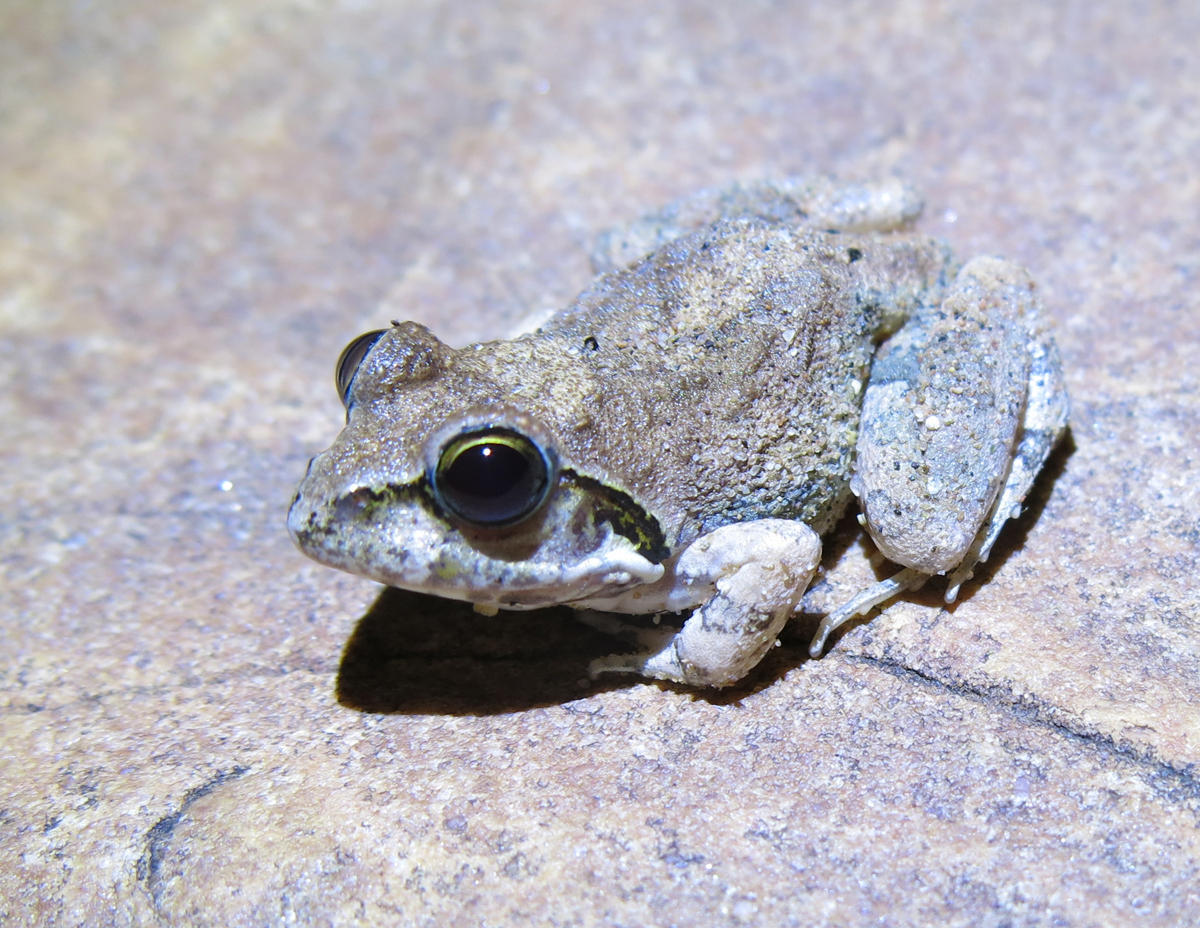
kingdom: Animalia
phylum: Chordata
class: Amphibia
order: Anura
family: Pyxicephalidae
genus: Tomopterna
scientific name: Tomopterna natalensis
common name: Natal sand frog
